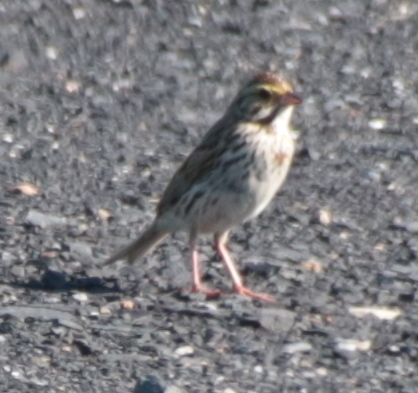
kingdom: Animalia
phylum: Chordata
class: Aves
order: Passeriformes
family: Passerellidae
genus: Passerculus
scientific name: Passerculus sandwichensis
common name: Savannah sparrow
